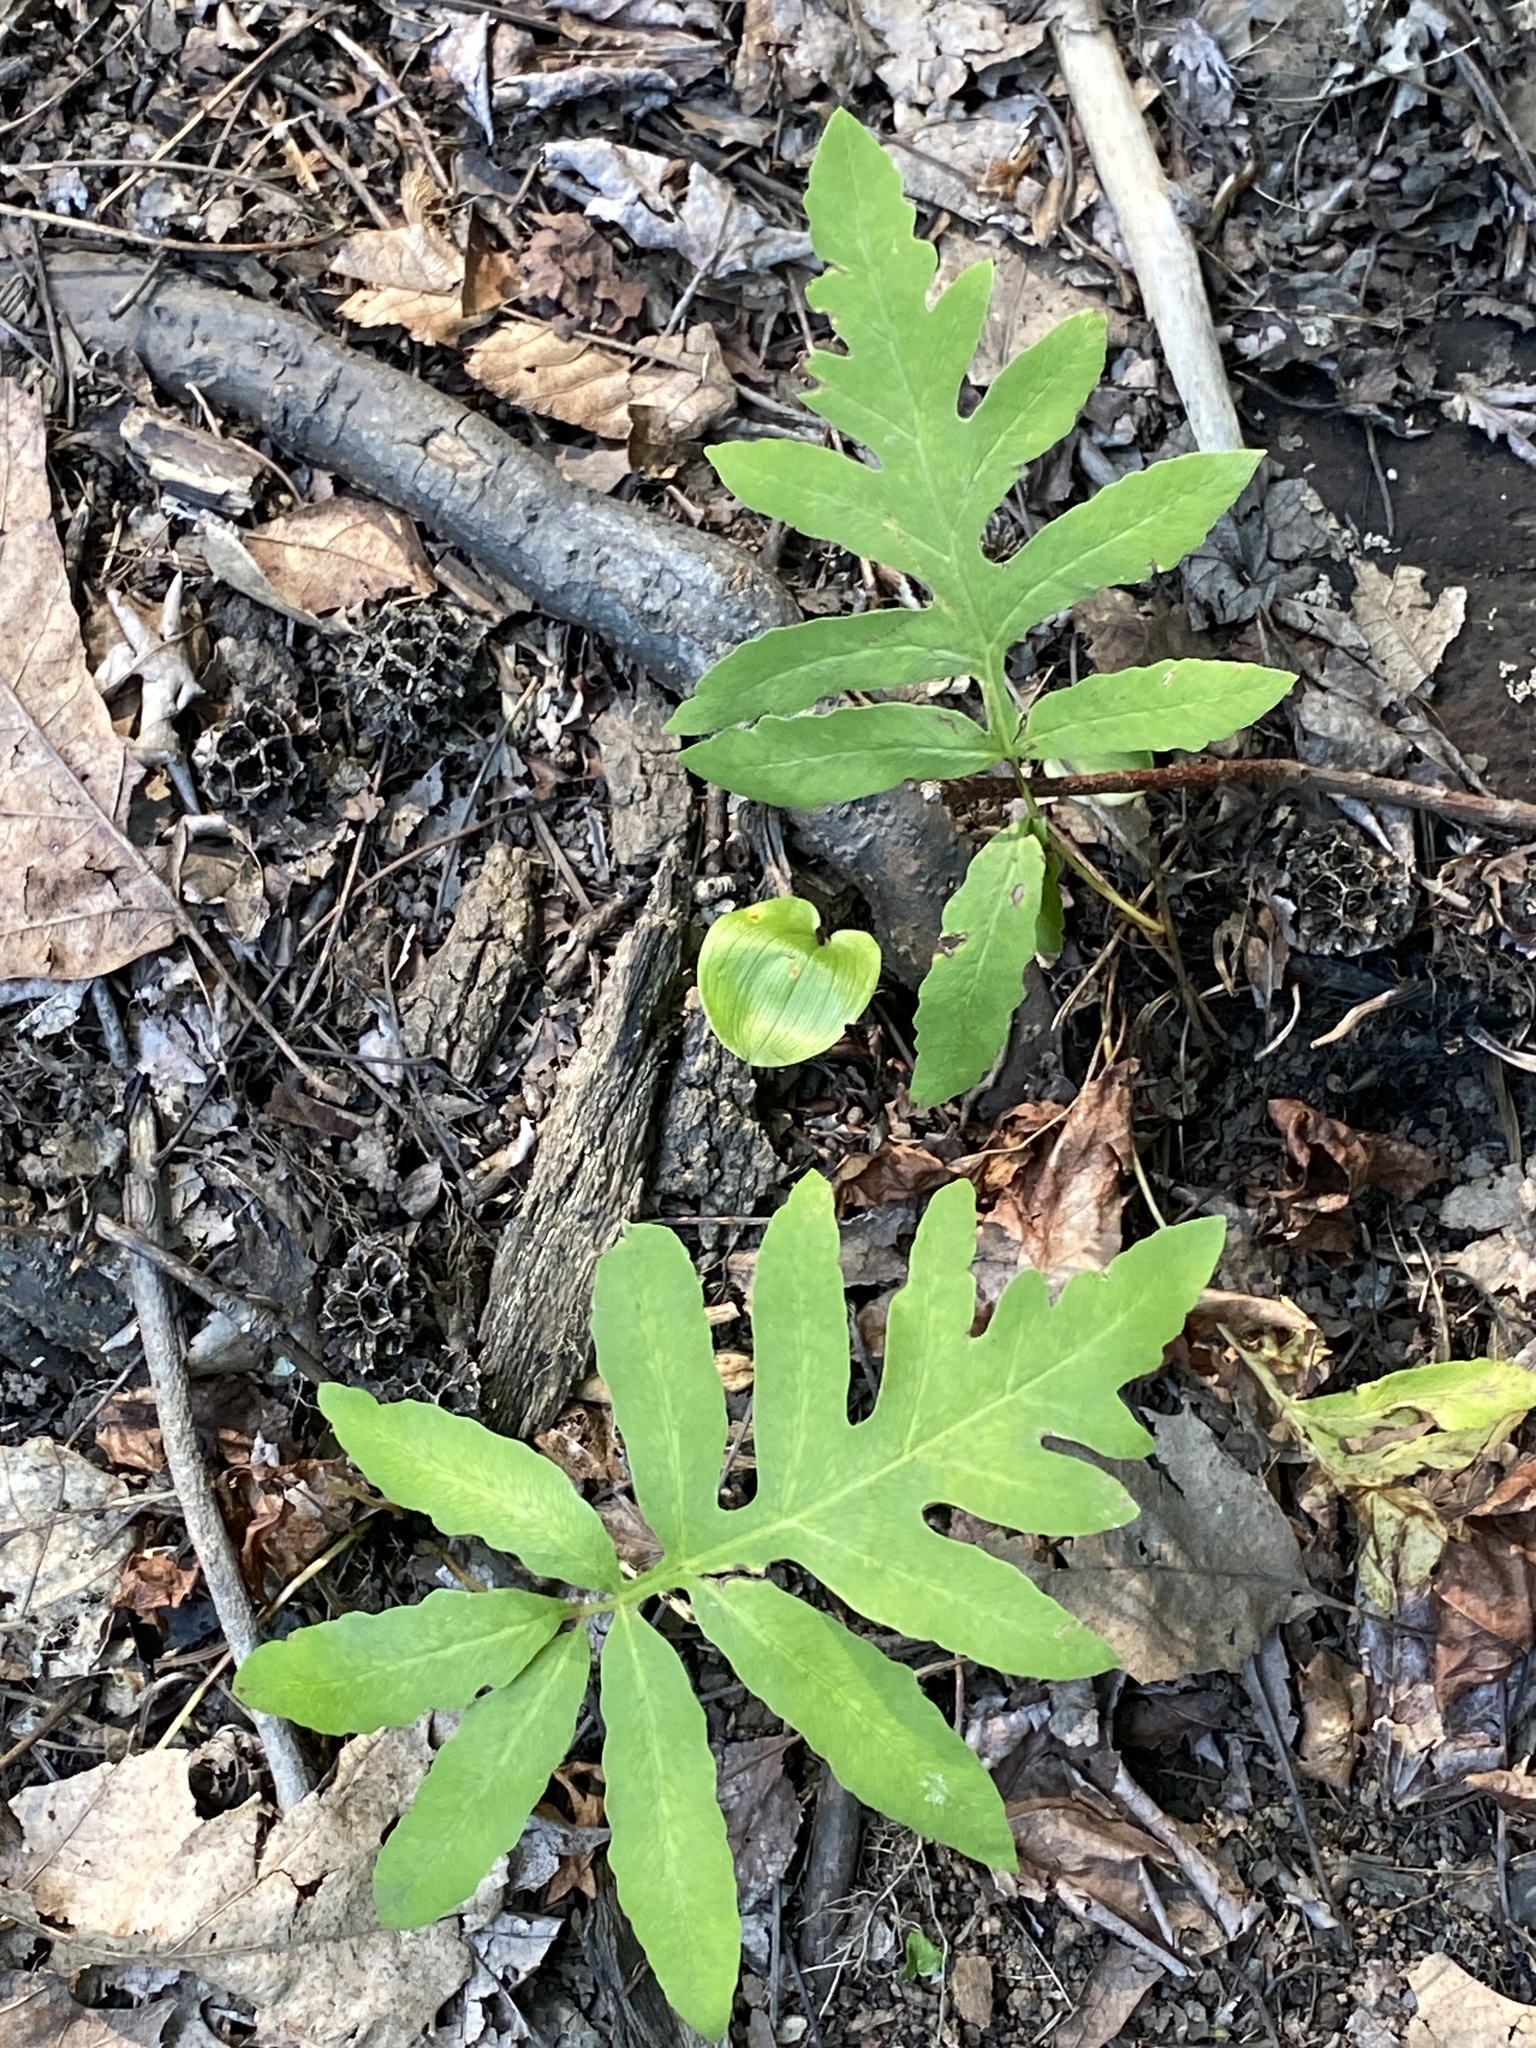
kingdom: Plantae
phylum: Tracheophyta
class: Polypodiopsida
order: Polypodiales
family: Onocleaceae
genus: Onoclea
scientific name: Onoclea sensibilis
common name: Sensitive fern
